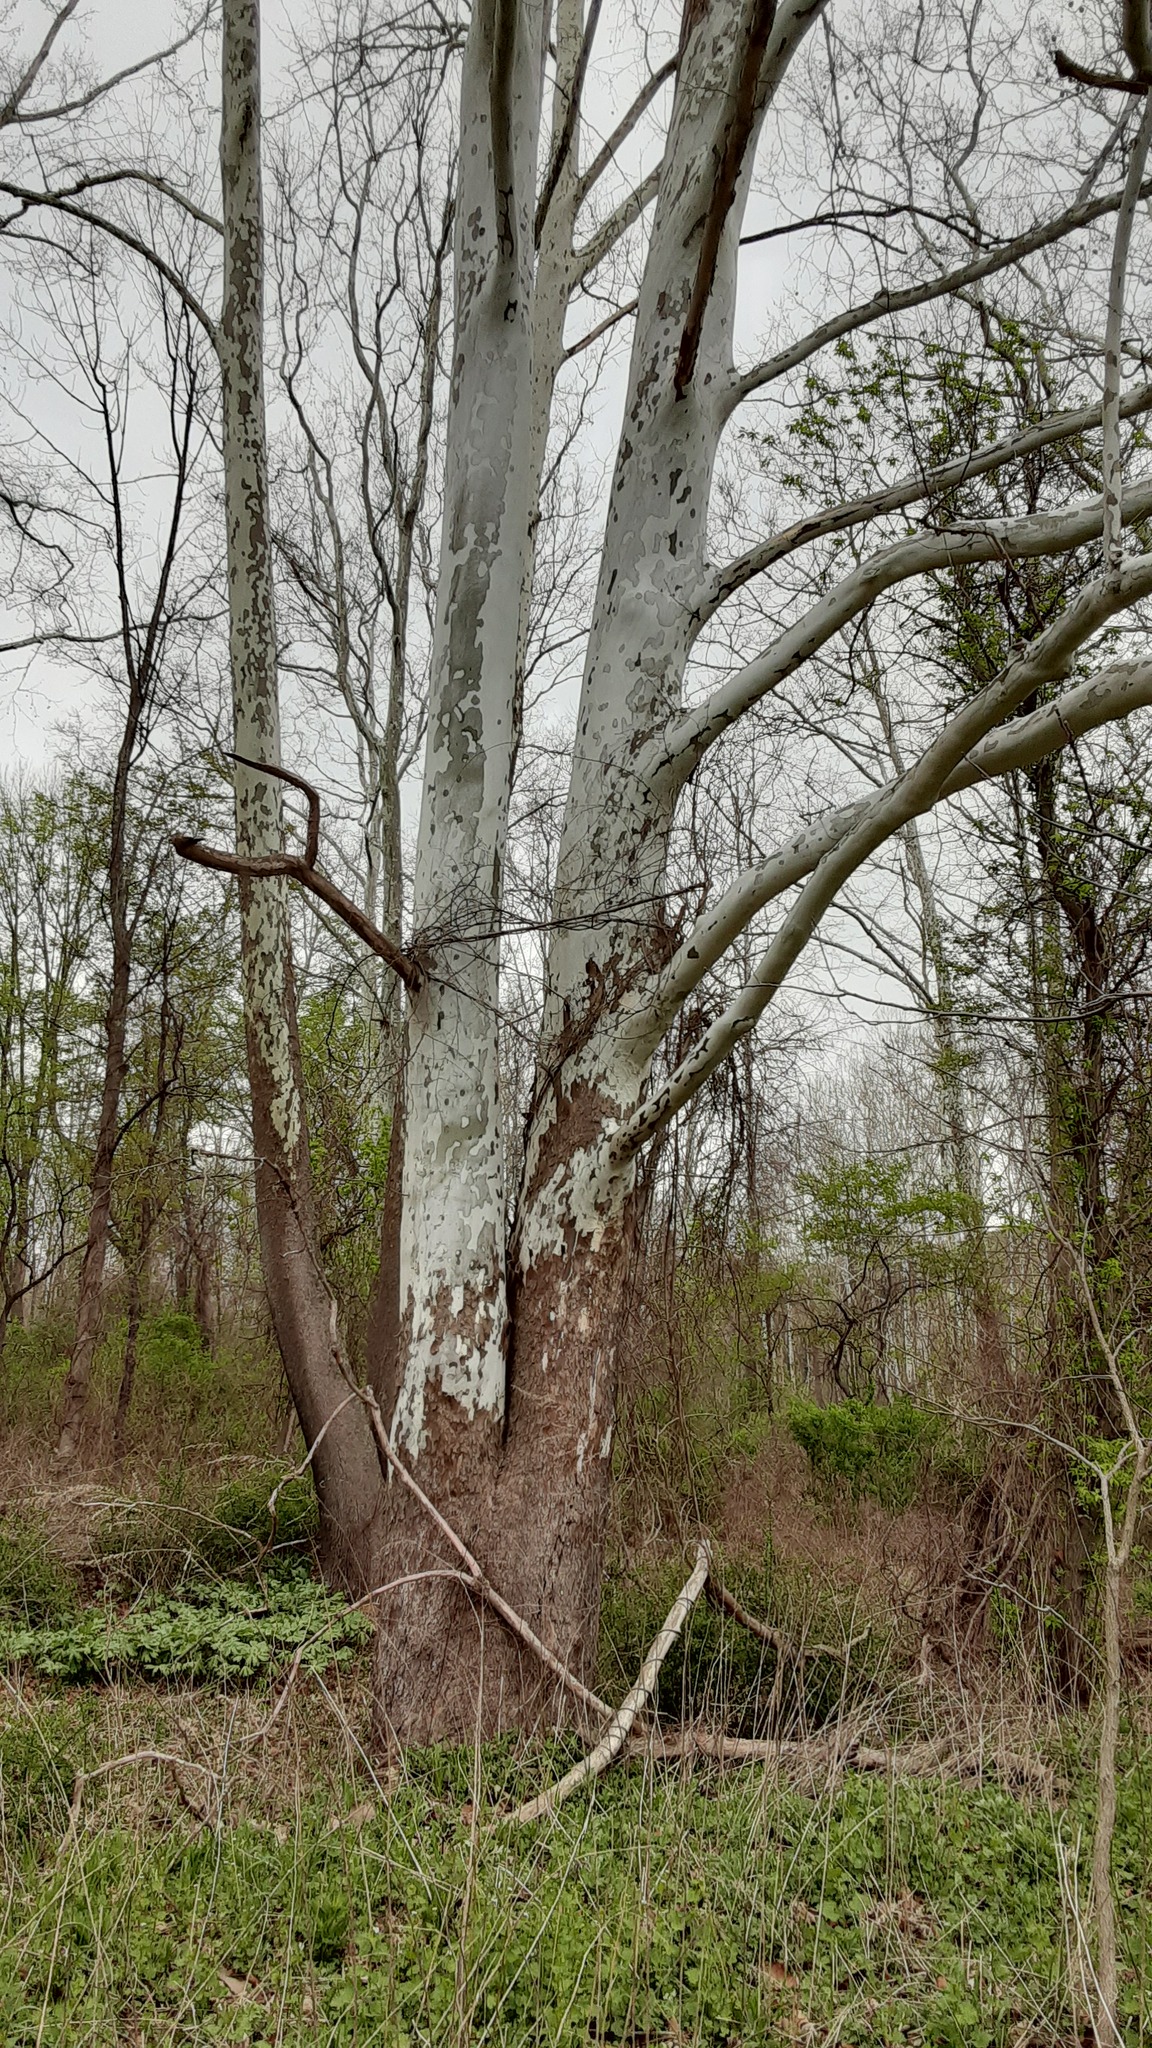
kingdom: Plantae
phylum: Tracheophyta
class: Magnoliopsida
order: Proteales
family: Platanaceae
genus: Platanus
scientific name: Platanus occidentalis
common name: American sycamore
